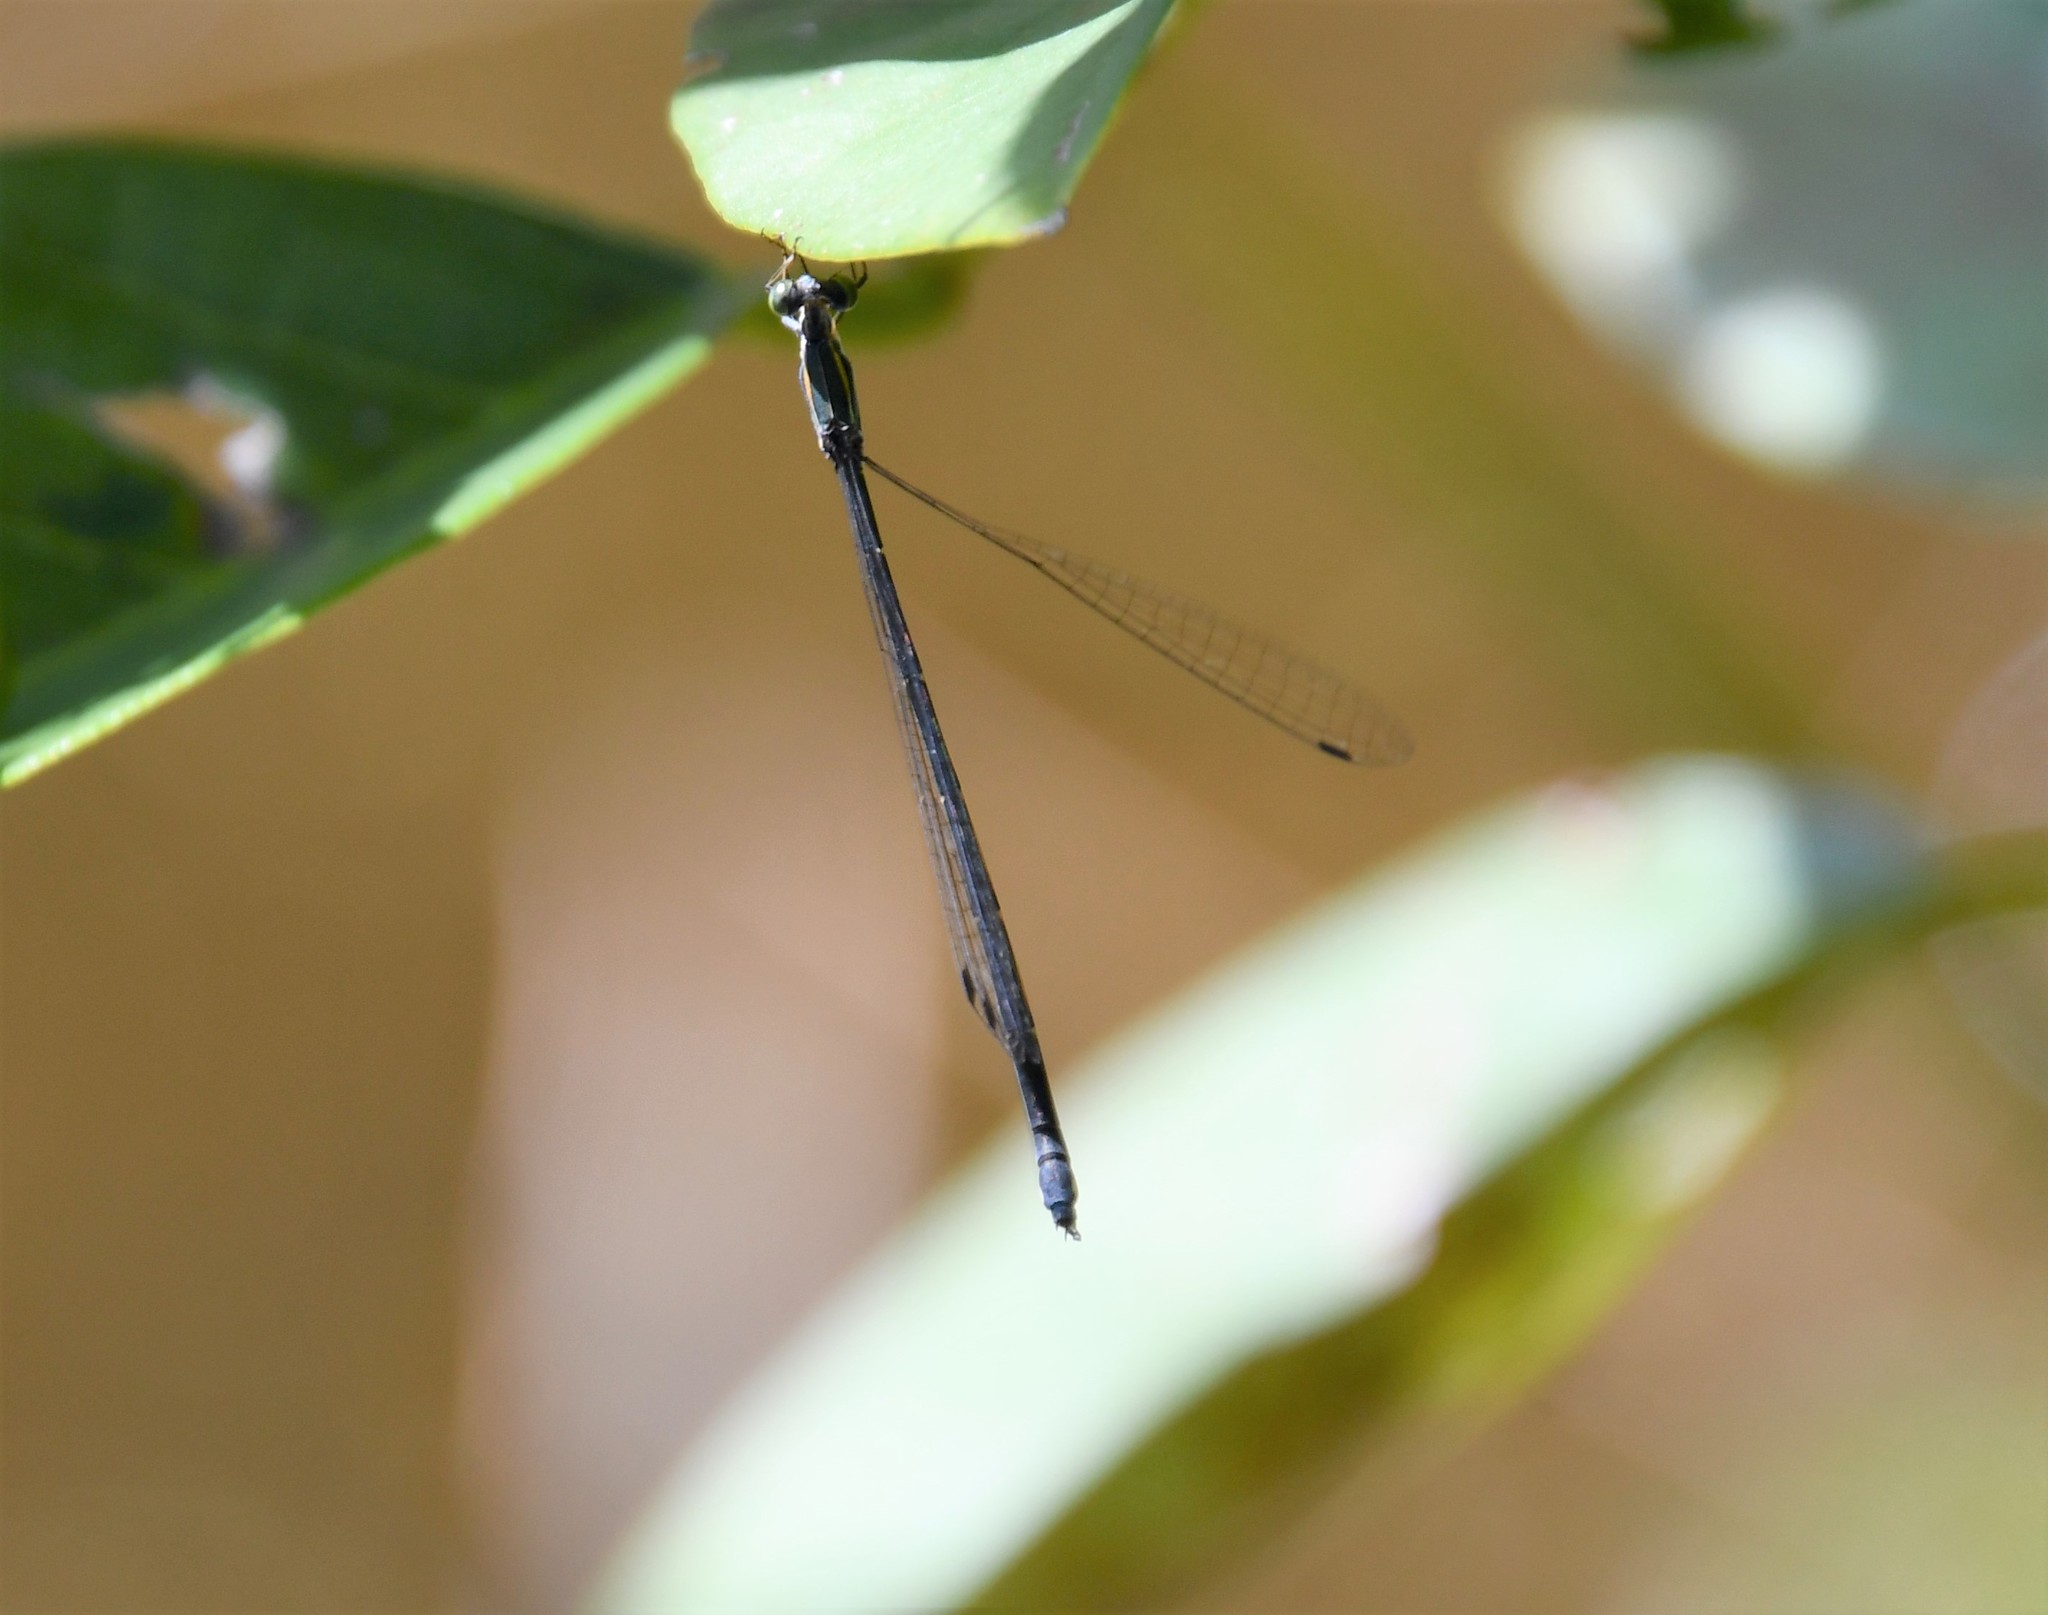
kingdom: Animalia
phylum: Arthropoda
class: Insecta
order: Odonata
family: Isostictidae
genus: Rhadinosticta
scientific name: Rhadinosticta simplex
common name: Powdered wiretail
